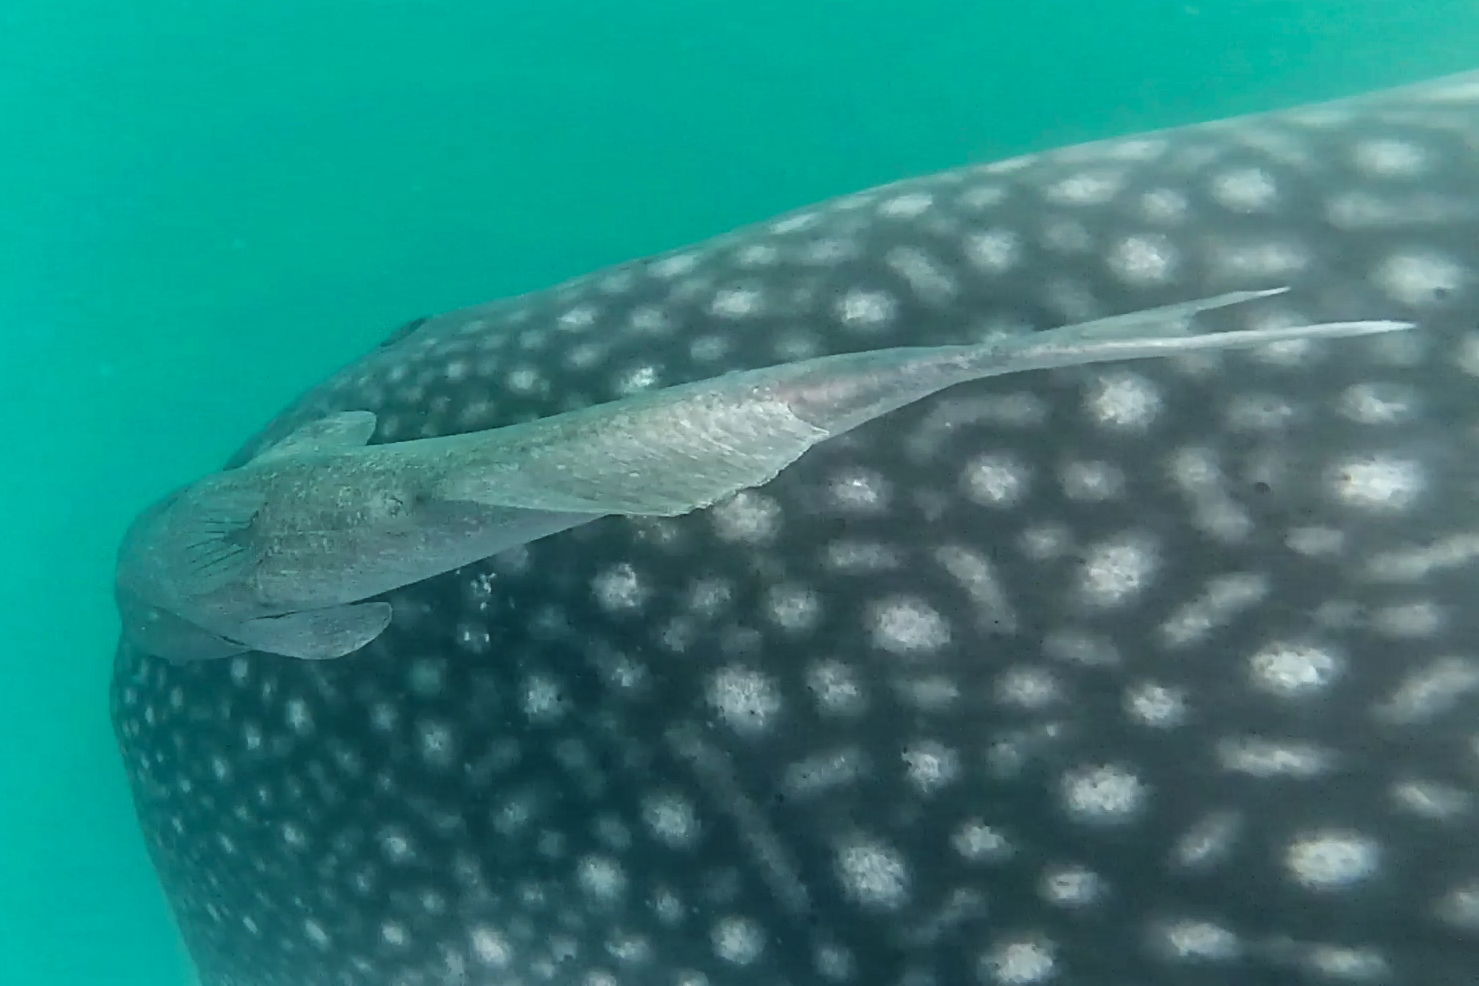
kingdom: Animalia
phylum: Chordata
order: Perciformes
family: Echeneidae
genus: Remora
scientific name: Remora remora
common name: Remora
